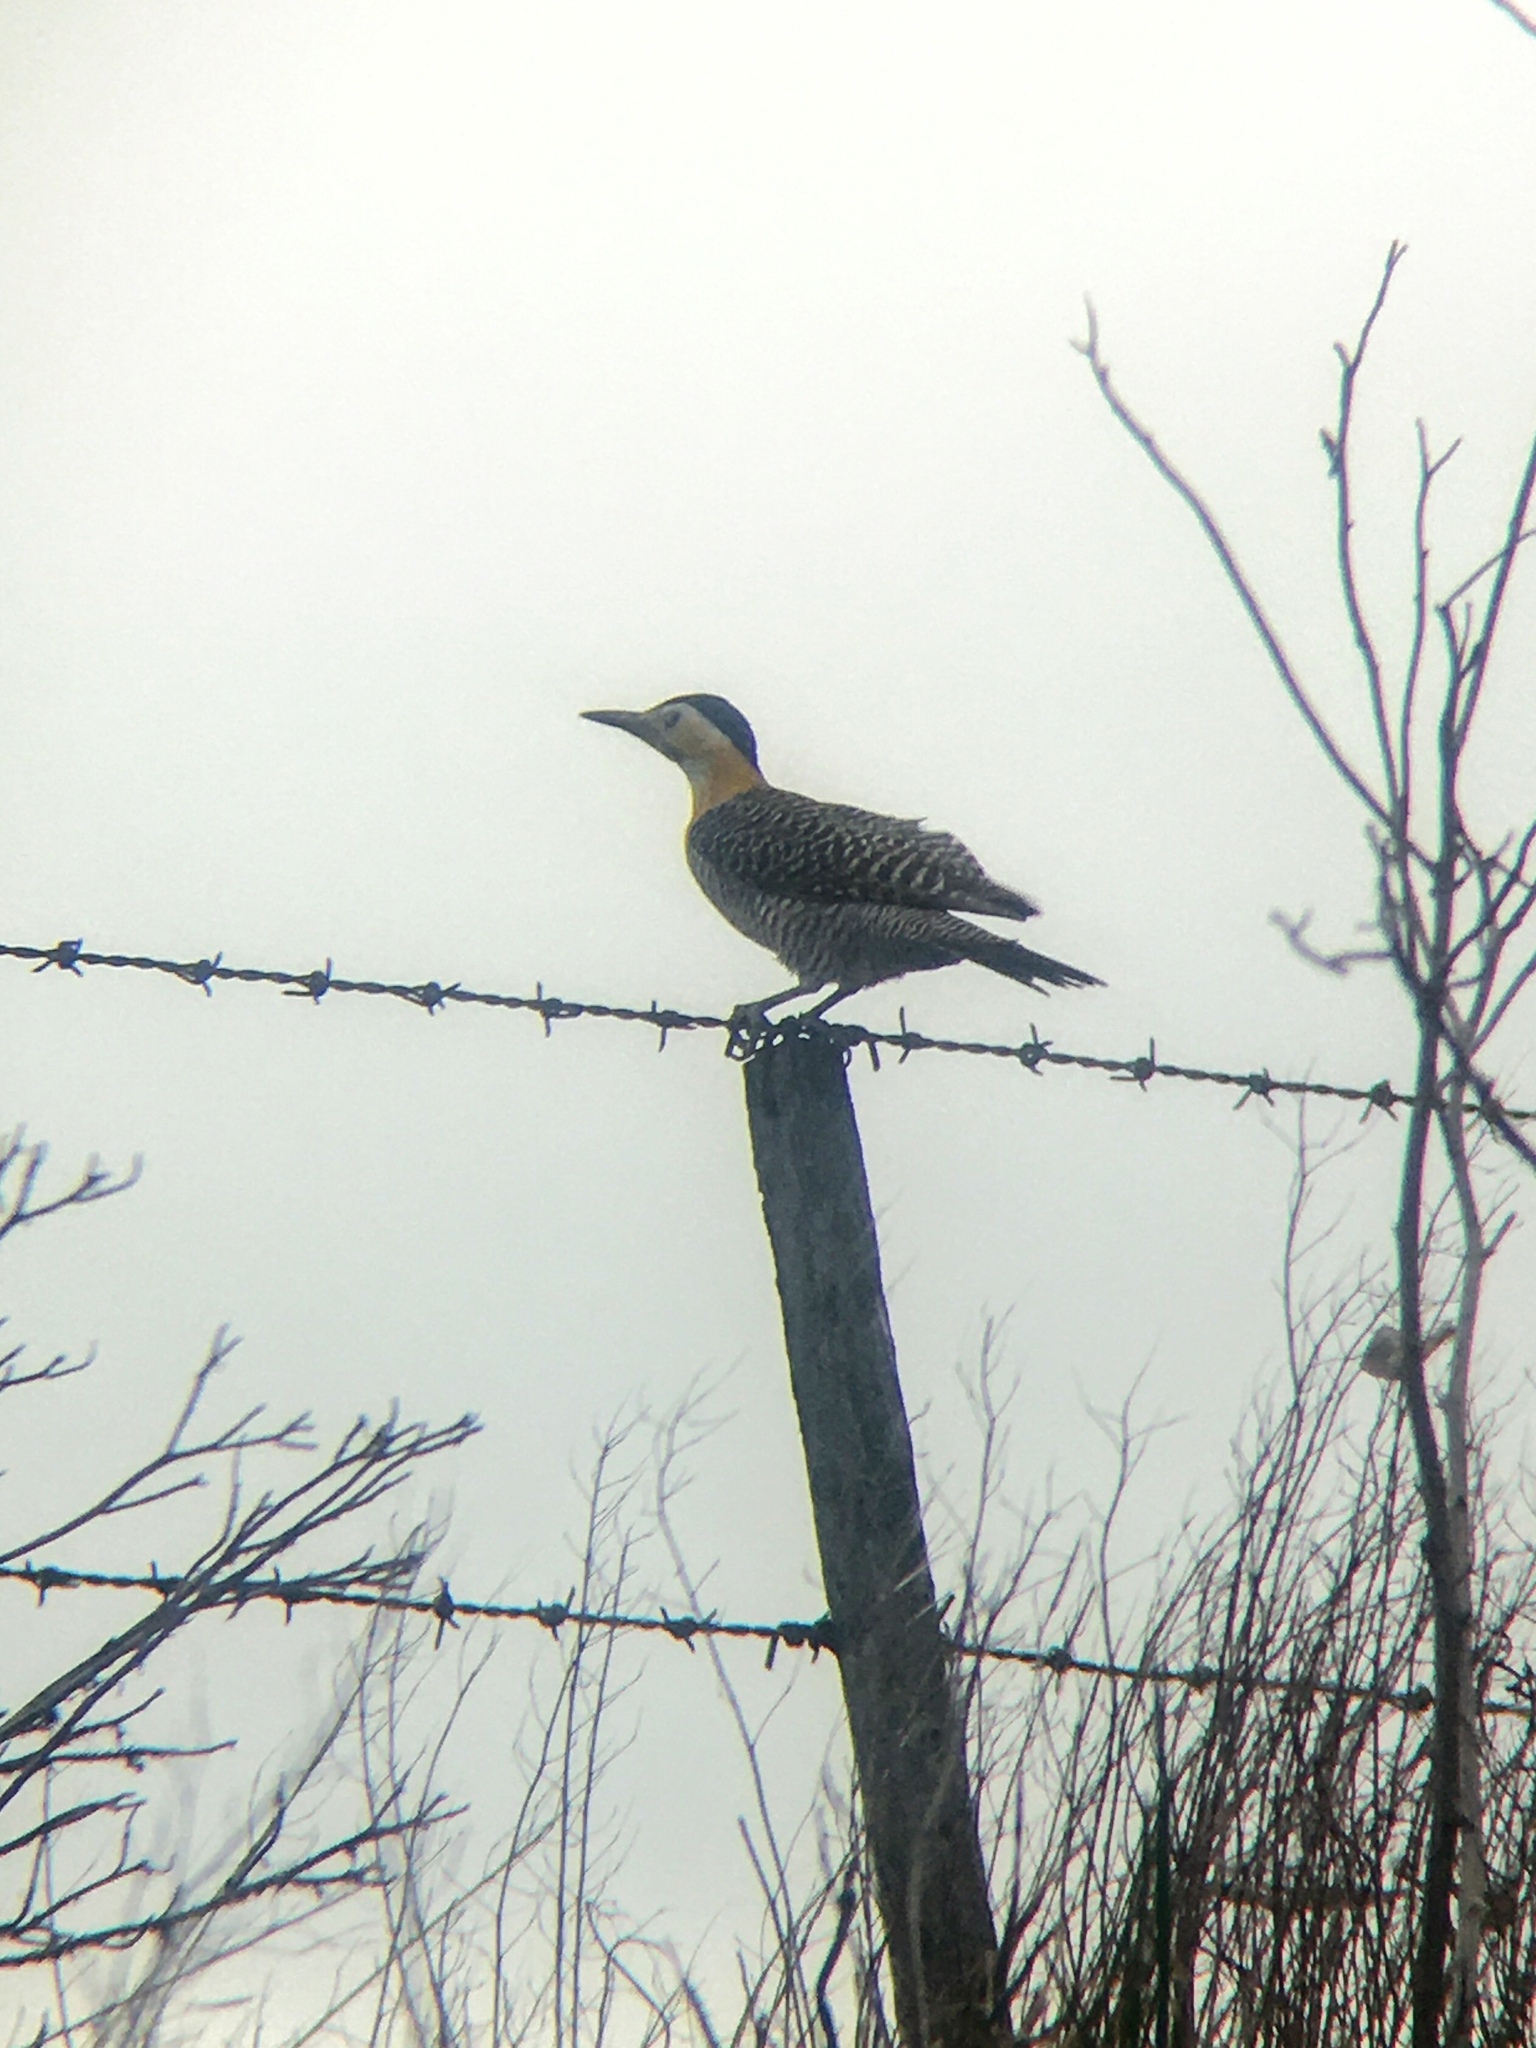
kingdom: Animalia
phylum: Chordata
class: Aves
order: Piciformes
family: Picidae
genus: Colaptes
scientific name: Colaptes campestris
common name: Campo flicker
